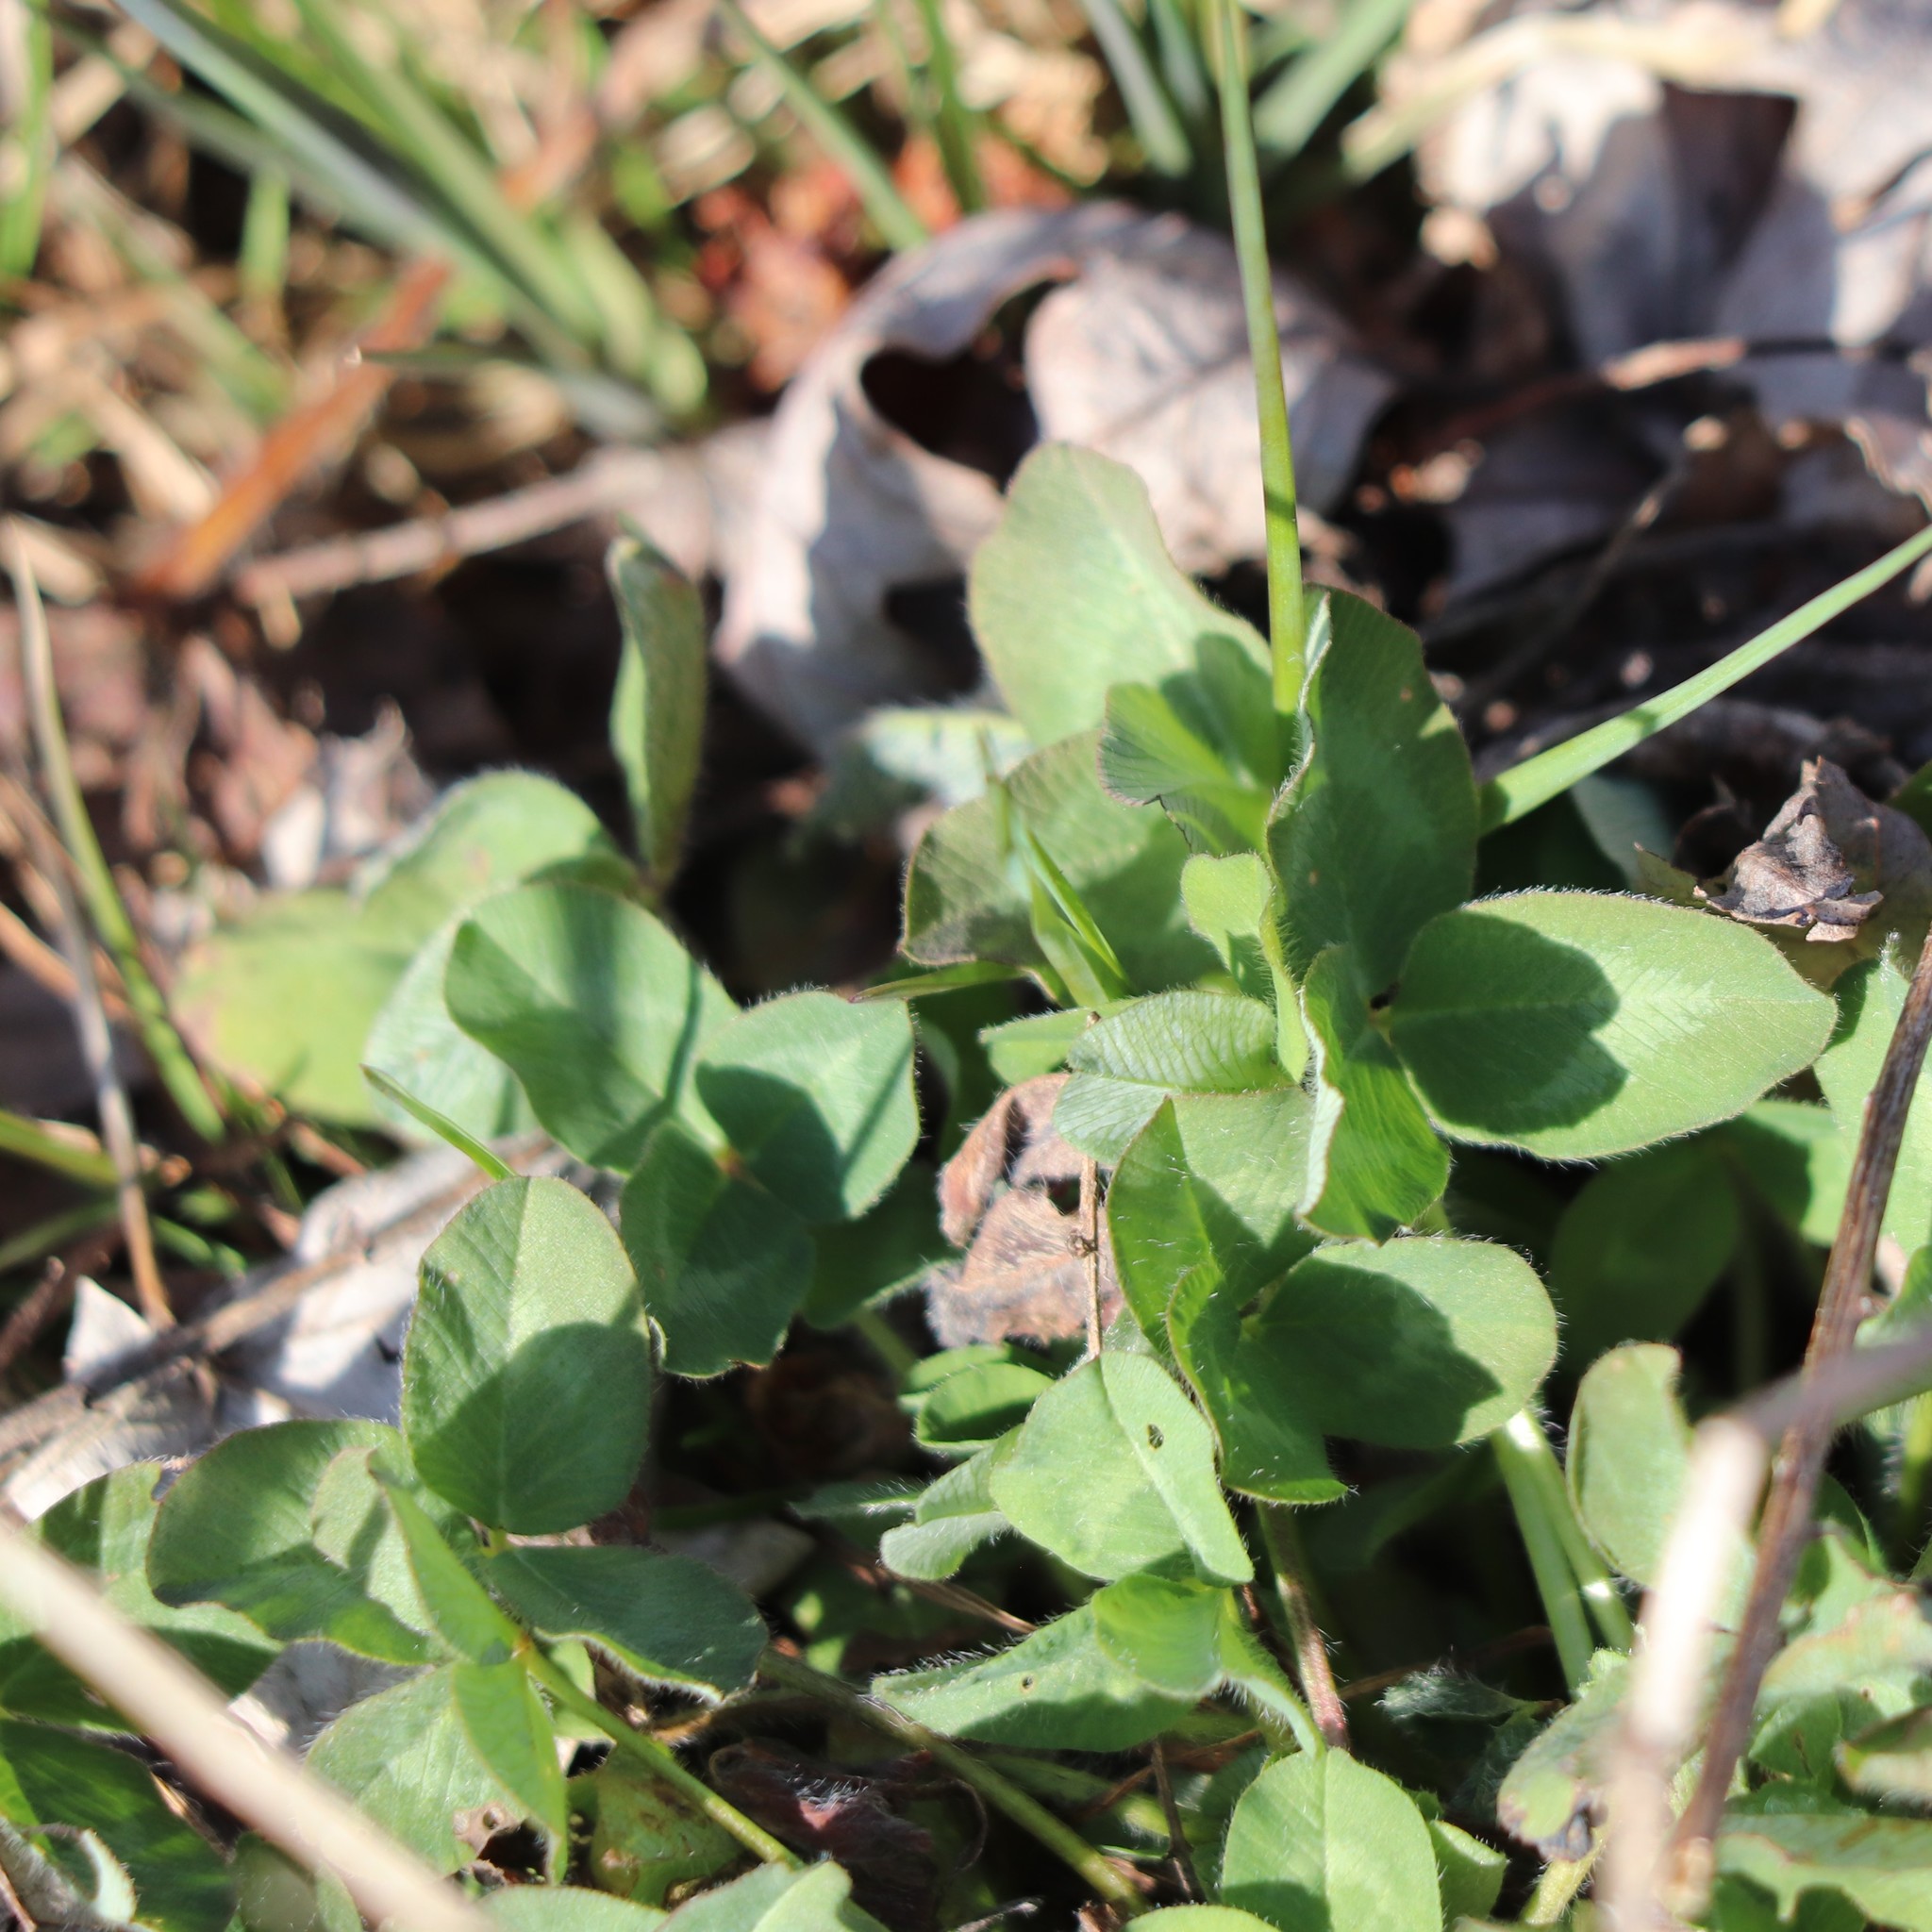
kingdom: Plantae
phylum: Tracheophyta
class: Magnoliopsida
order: Fabales
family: Fabaceae
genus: Trifolium
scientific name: Trifolium pratense
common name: Red clover
